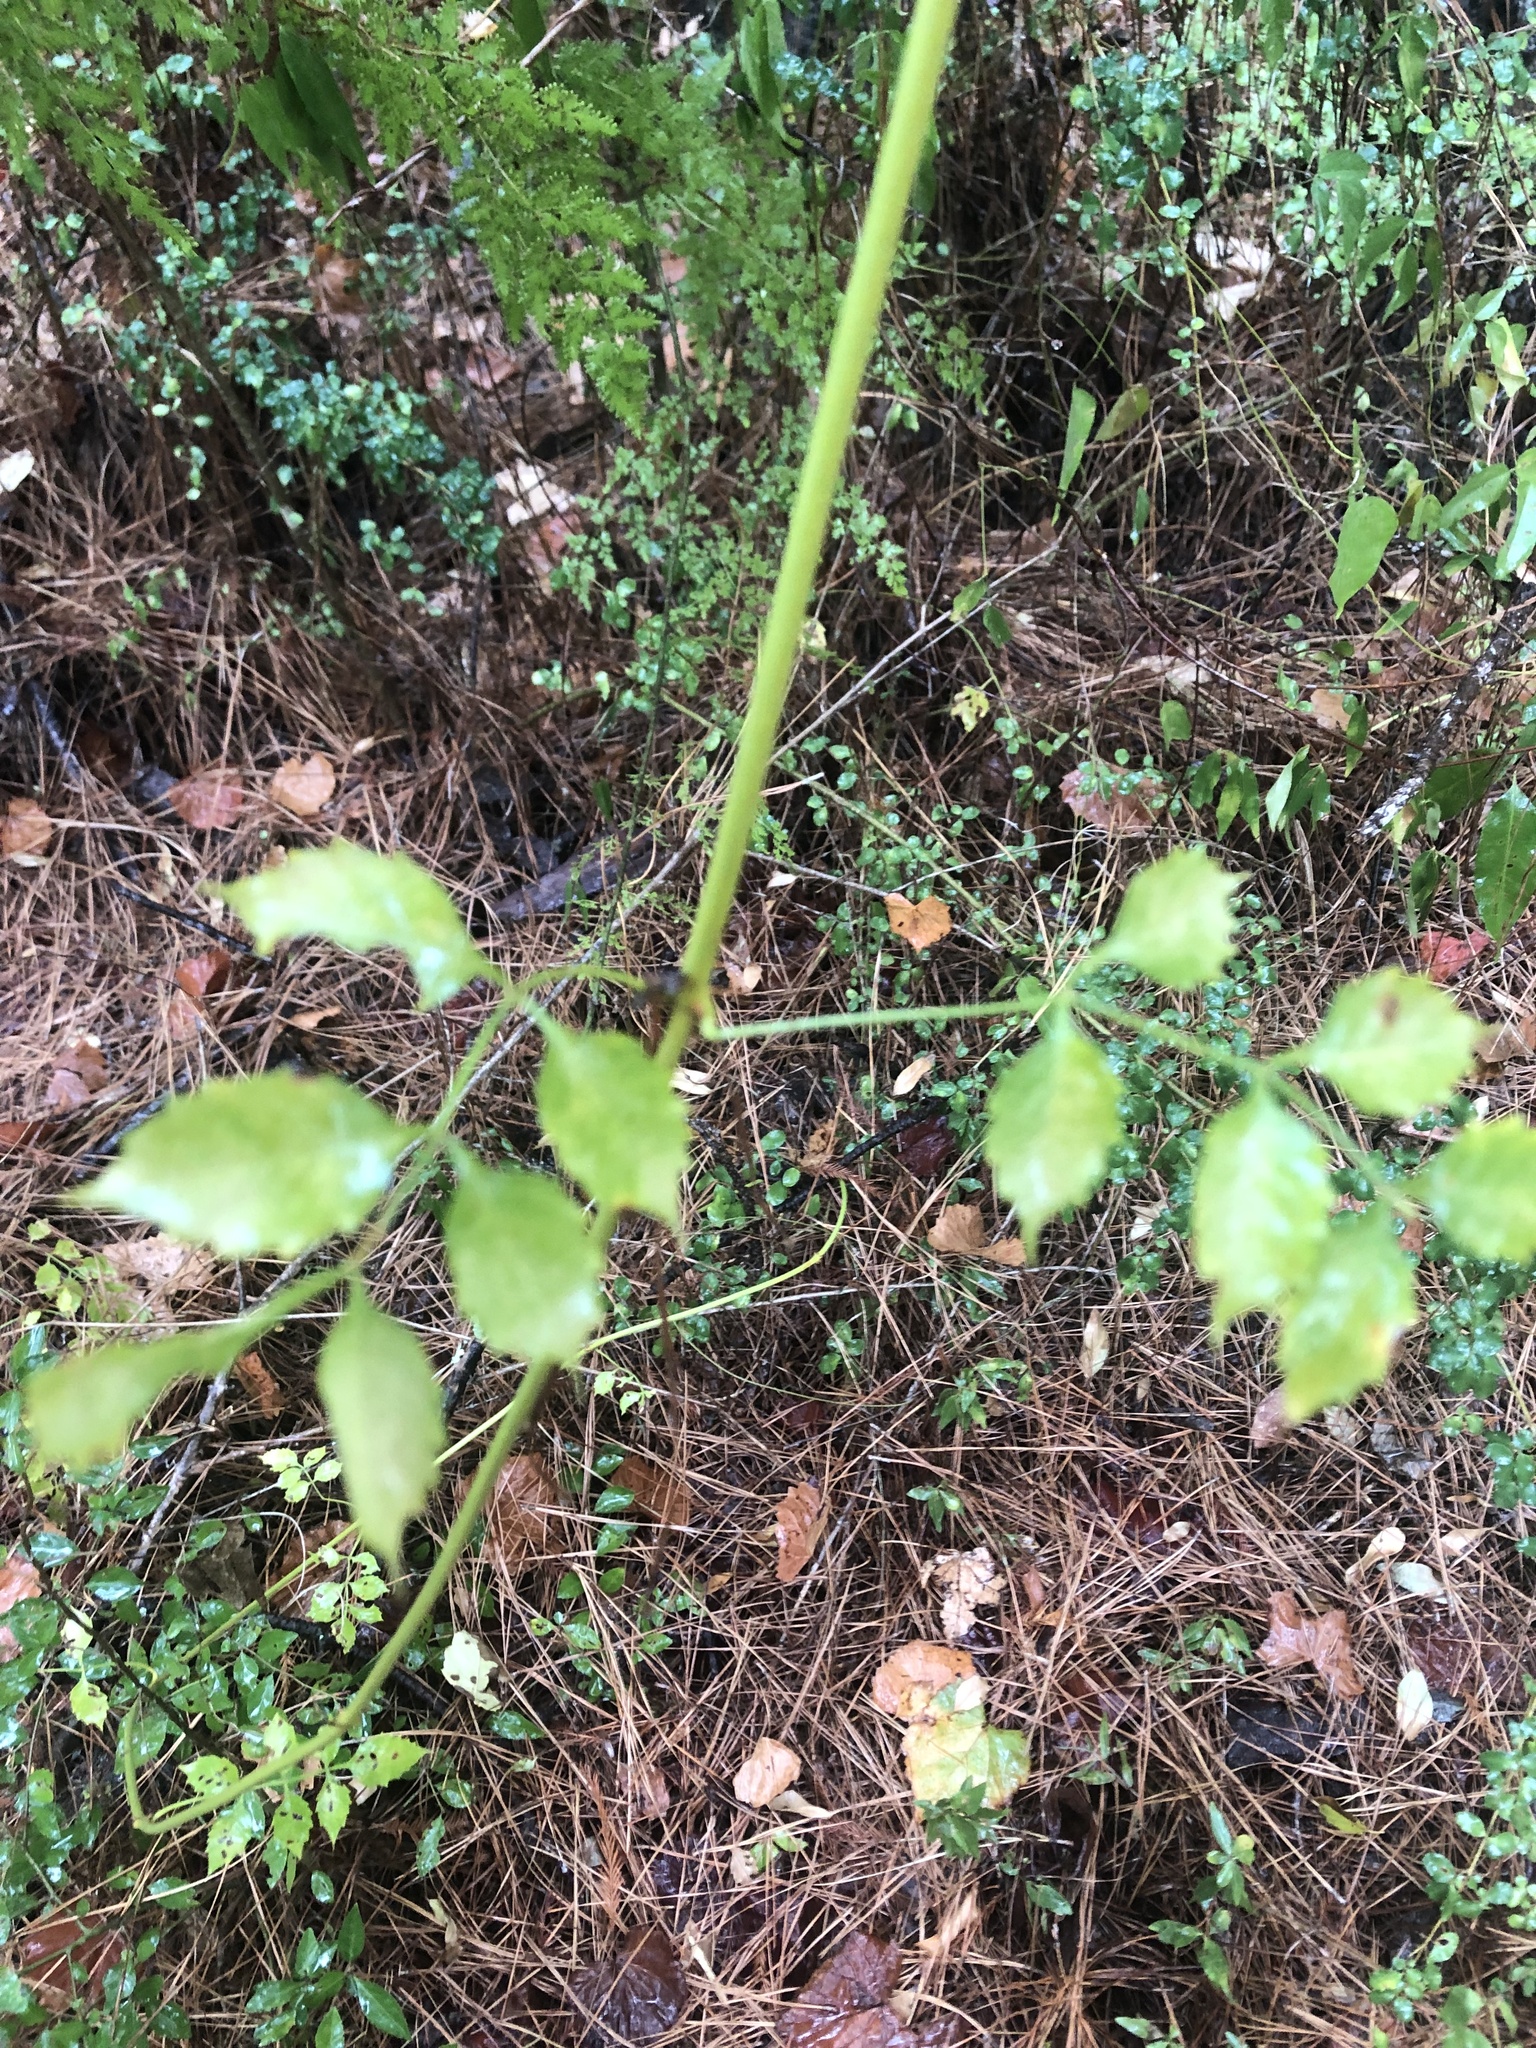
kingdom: Plantae
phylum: Tracheophyta
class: Magnoliopsida
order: Lamiales
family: Bignoniaceae
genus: Campsis
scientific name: Campsis radicans
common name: Trumpet-creeper
